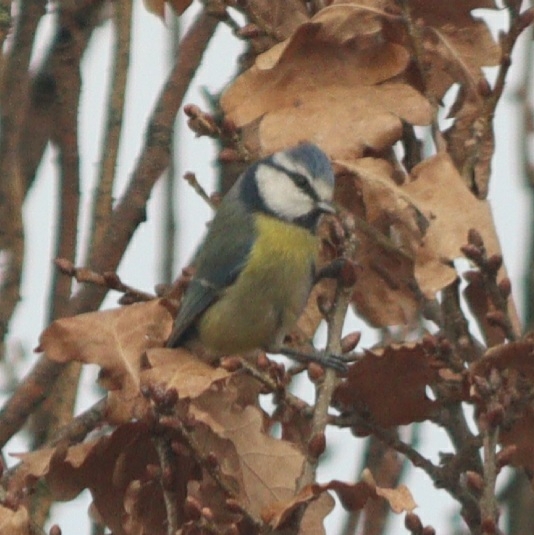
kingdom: Animalia
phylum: Chordata
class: Aves
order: Passeriformes
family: Paridae
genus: Cyanistes
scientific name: Cyanistes caeruleus
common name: Eurasian blue tit
